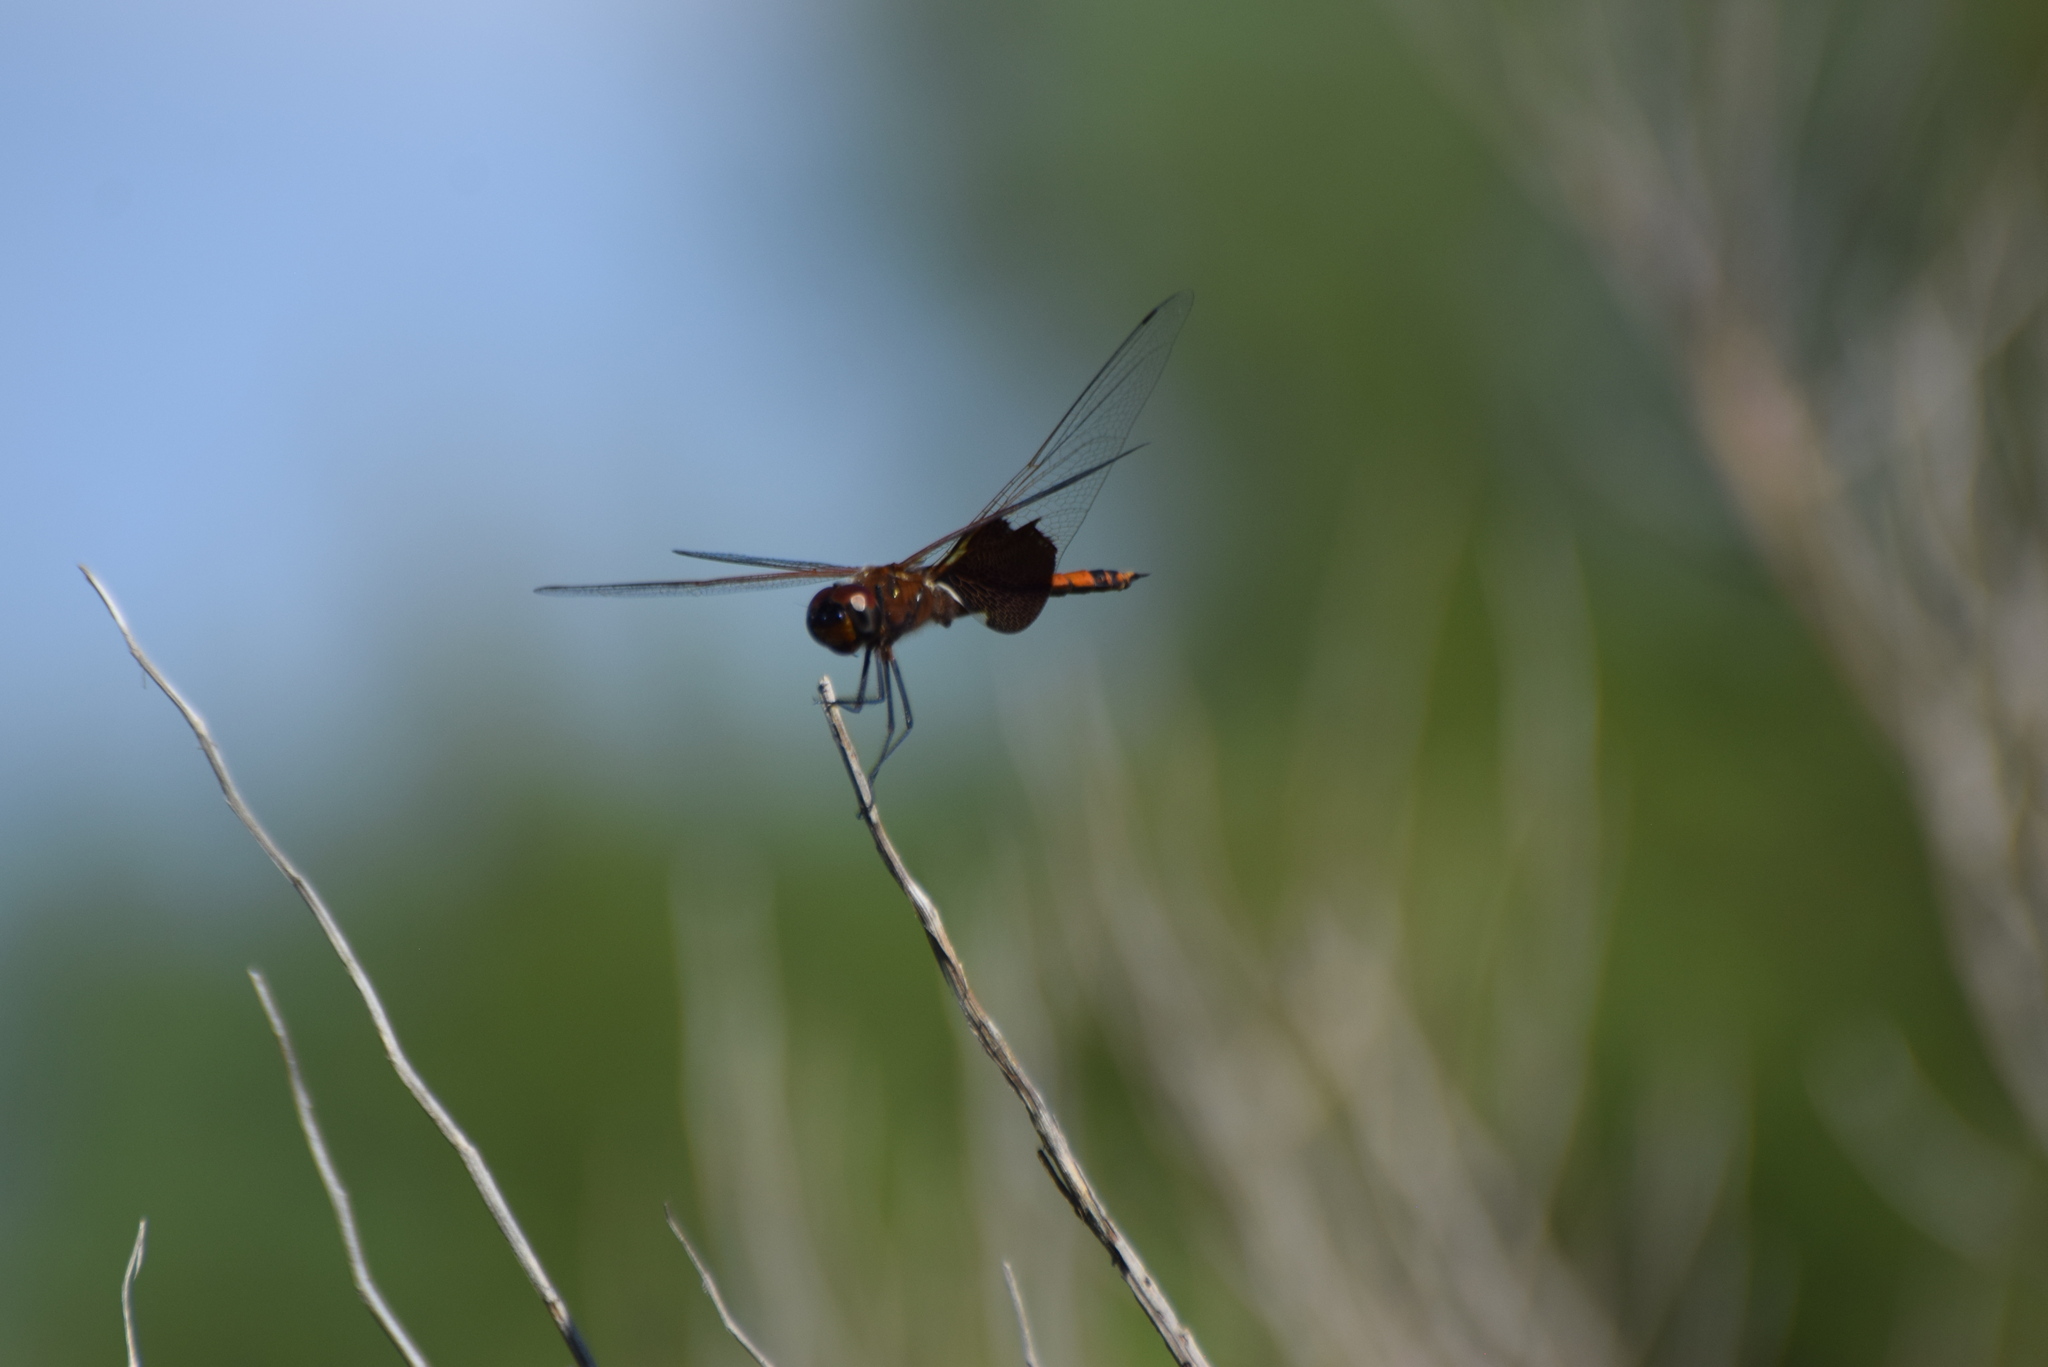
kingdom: Animalia
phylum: Arthropoda
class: Insecta
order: Odonata
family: Libellulidae
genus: Tramea
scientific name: Tramea carolina
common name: Carolina saddlebags
